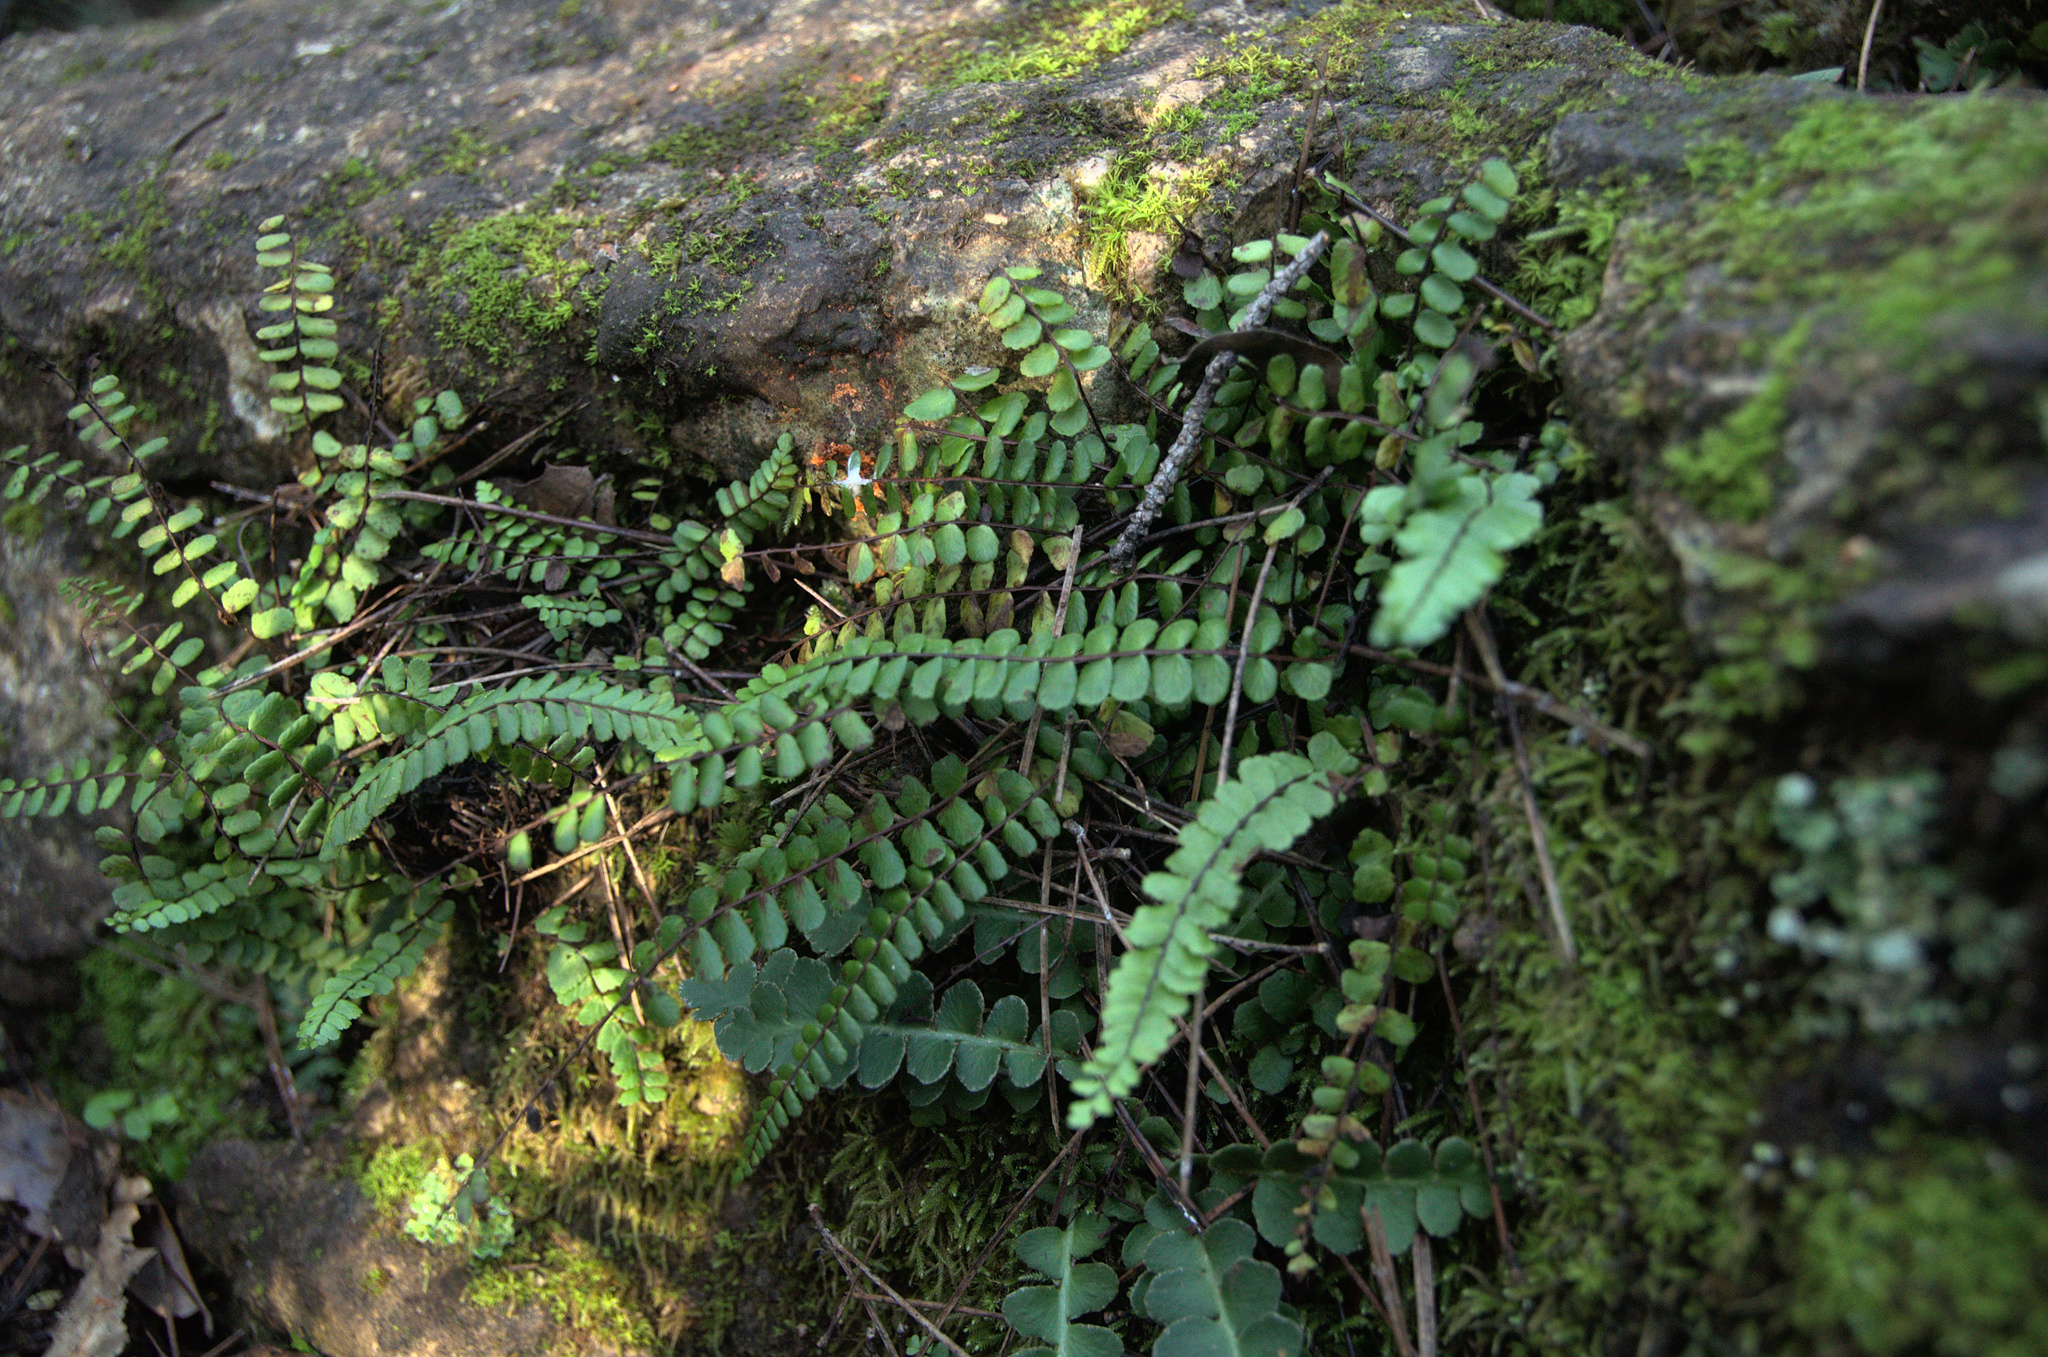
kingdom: Plantae
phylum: Tracheophyta
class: Polypodiopsida
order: Polypodiales
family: Aspleniaceae
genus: Asplenium
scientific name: Asplenium trichomanes
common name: Maidenhair spleenwort
